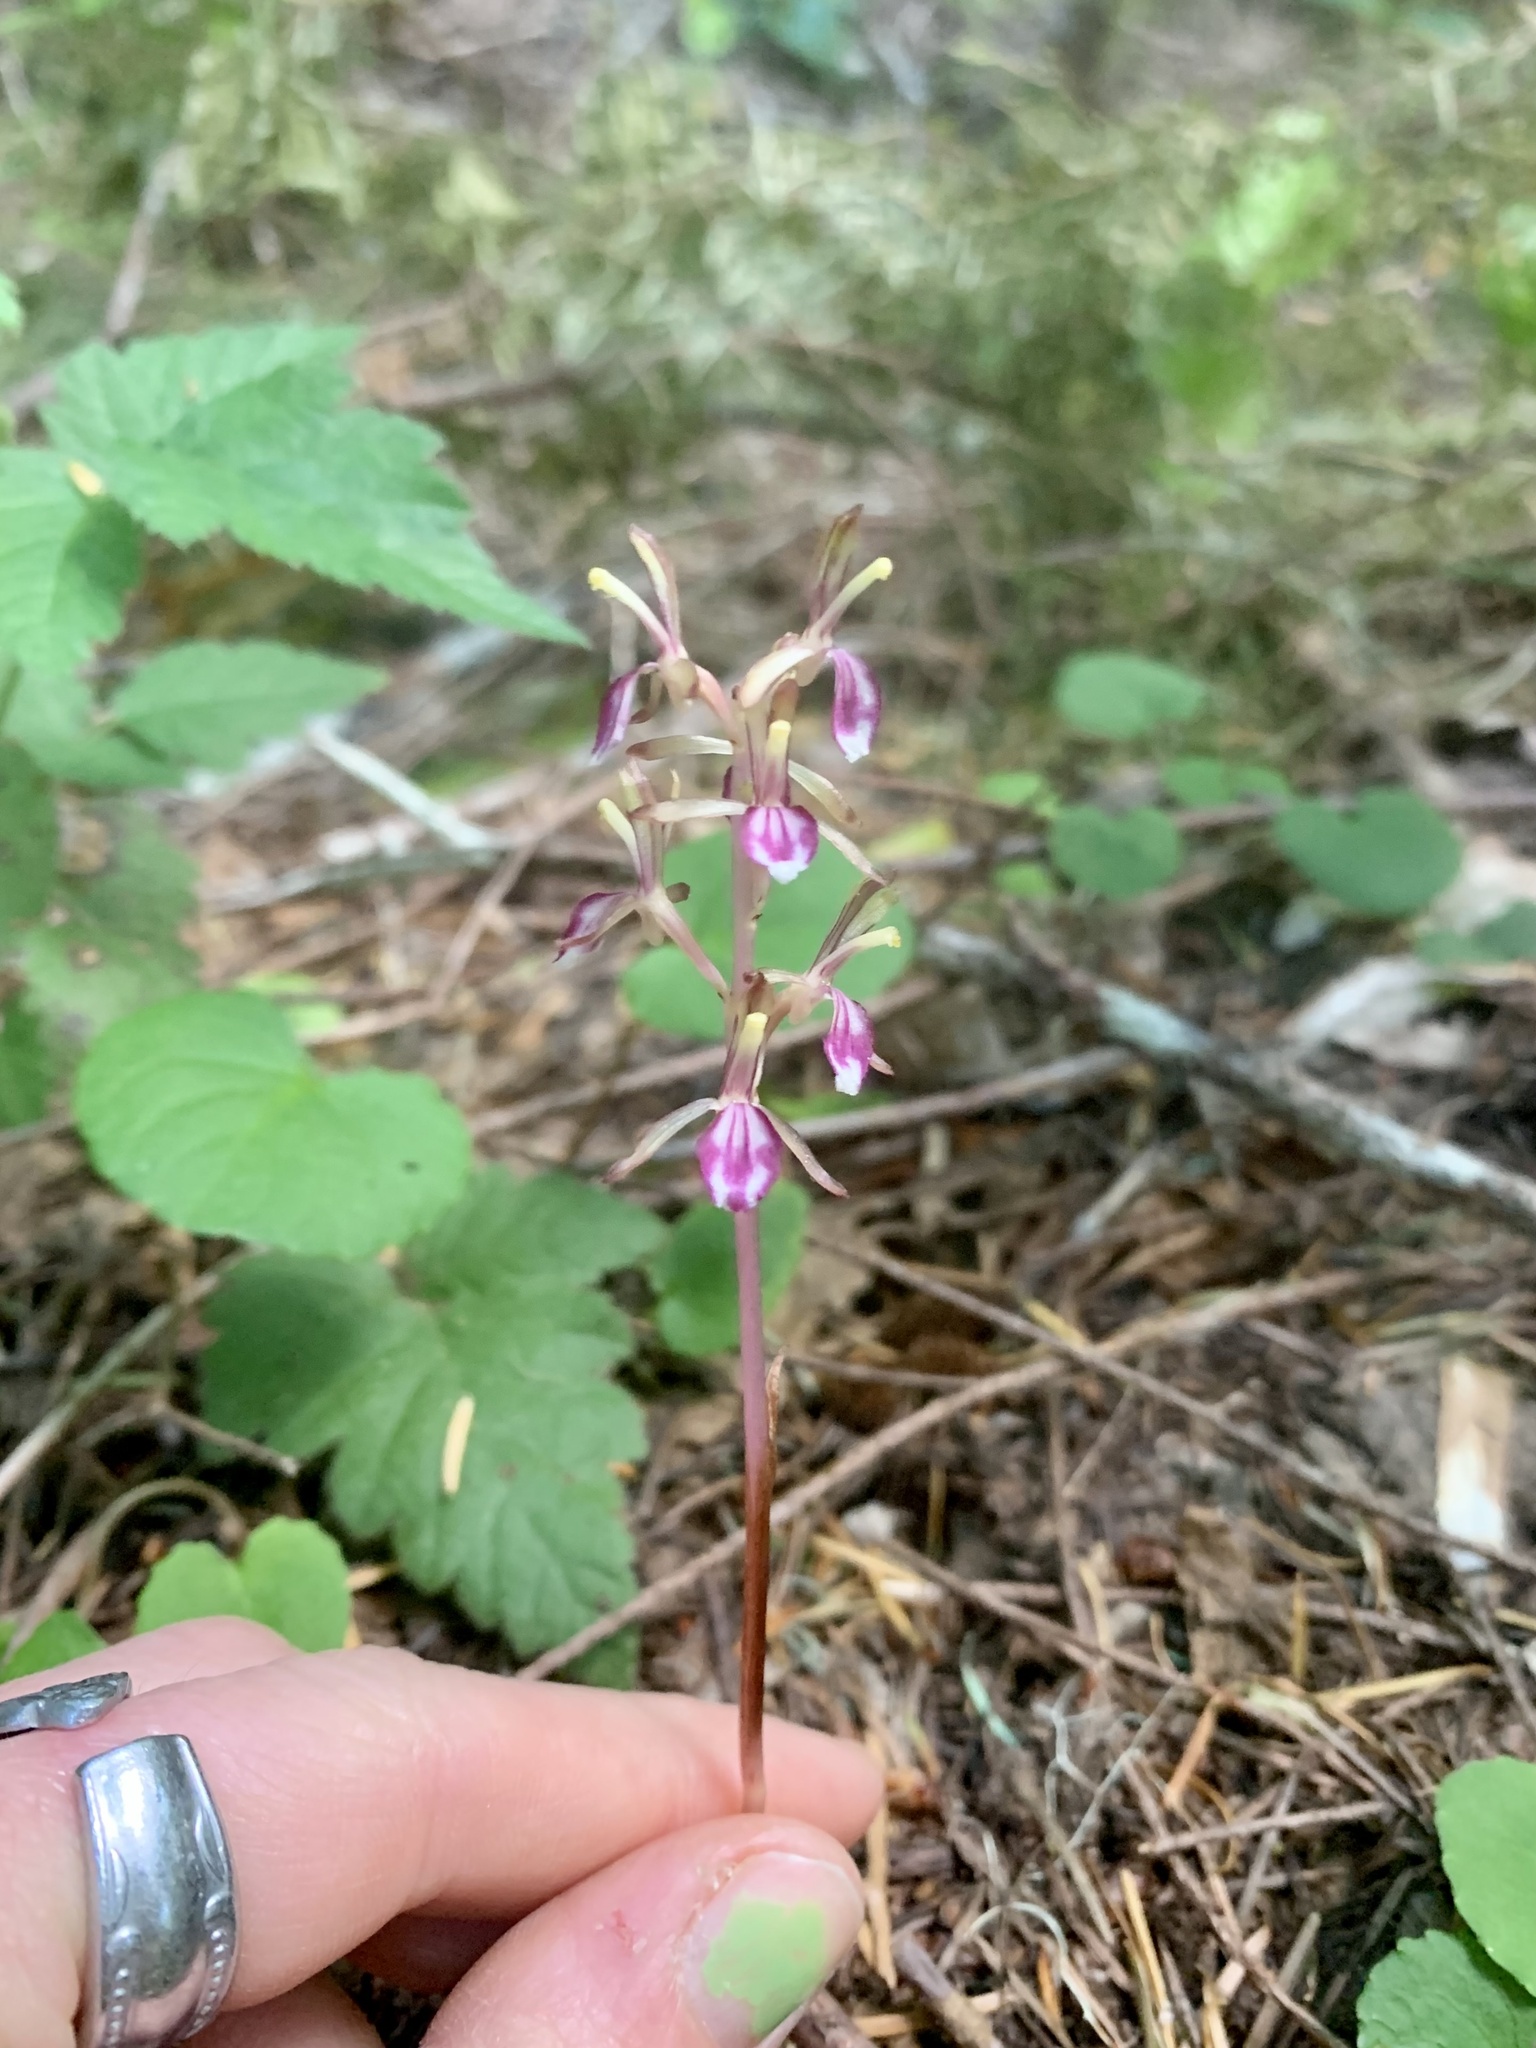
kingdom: Plantae
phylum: Tracheophyta
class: Liliopsida
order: Asparagales
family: Orchidaceae
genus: Corallorhiza
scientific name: Corallorhiza mertensiana
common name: Pacific coralroot
